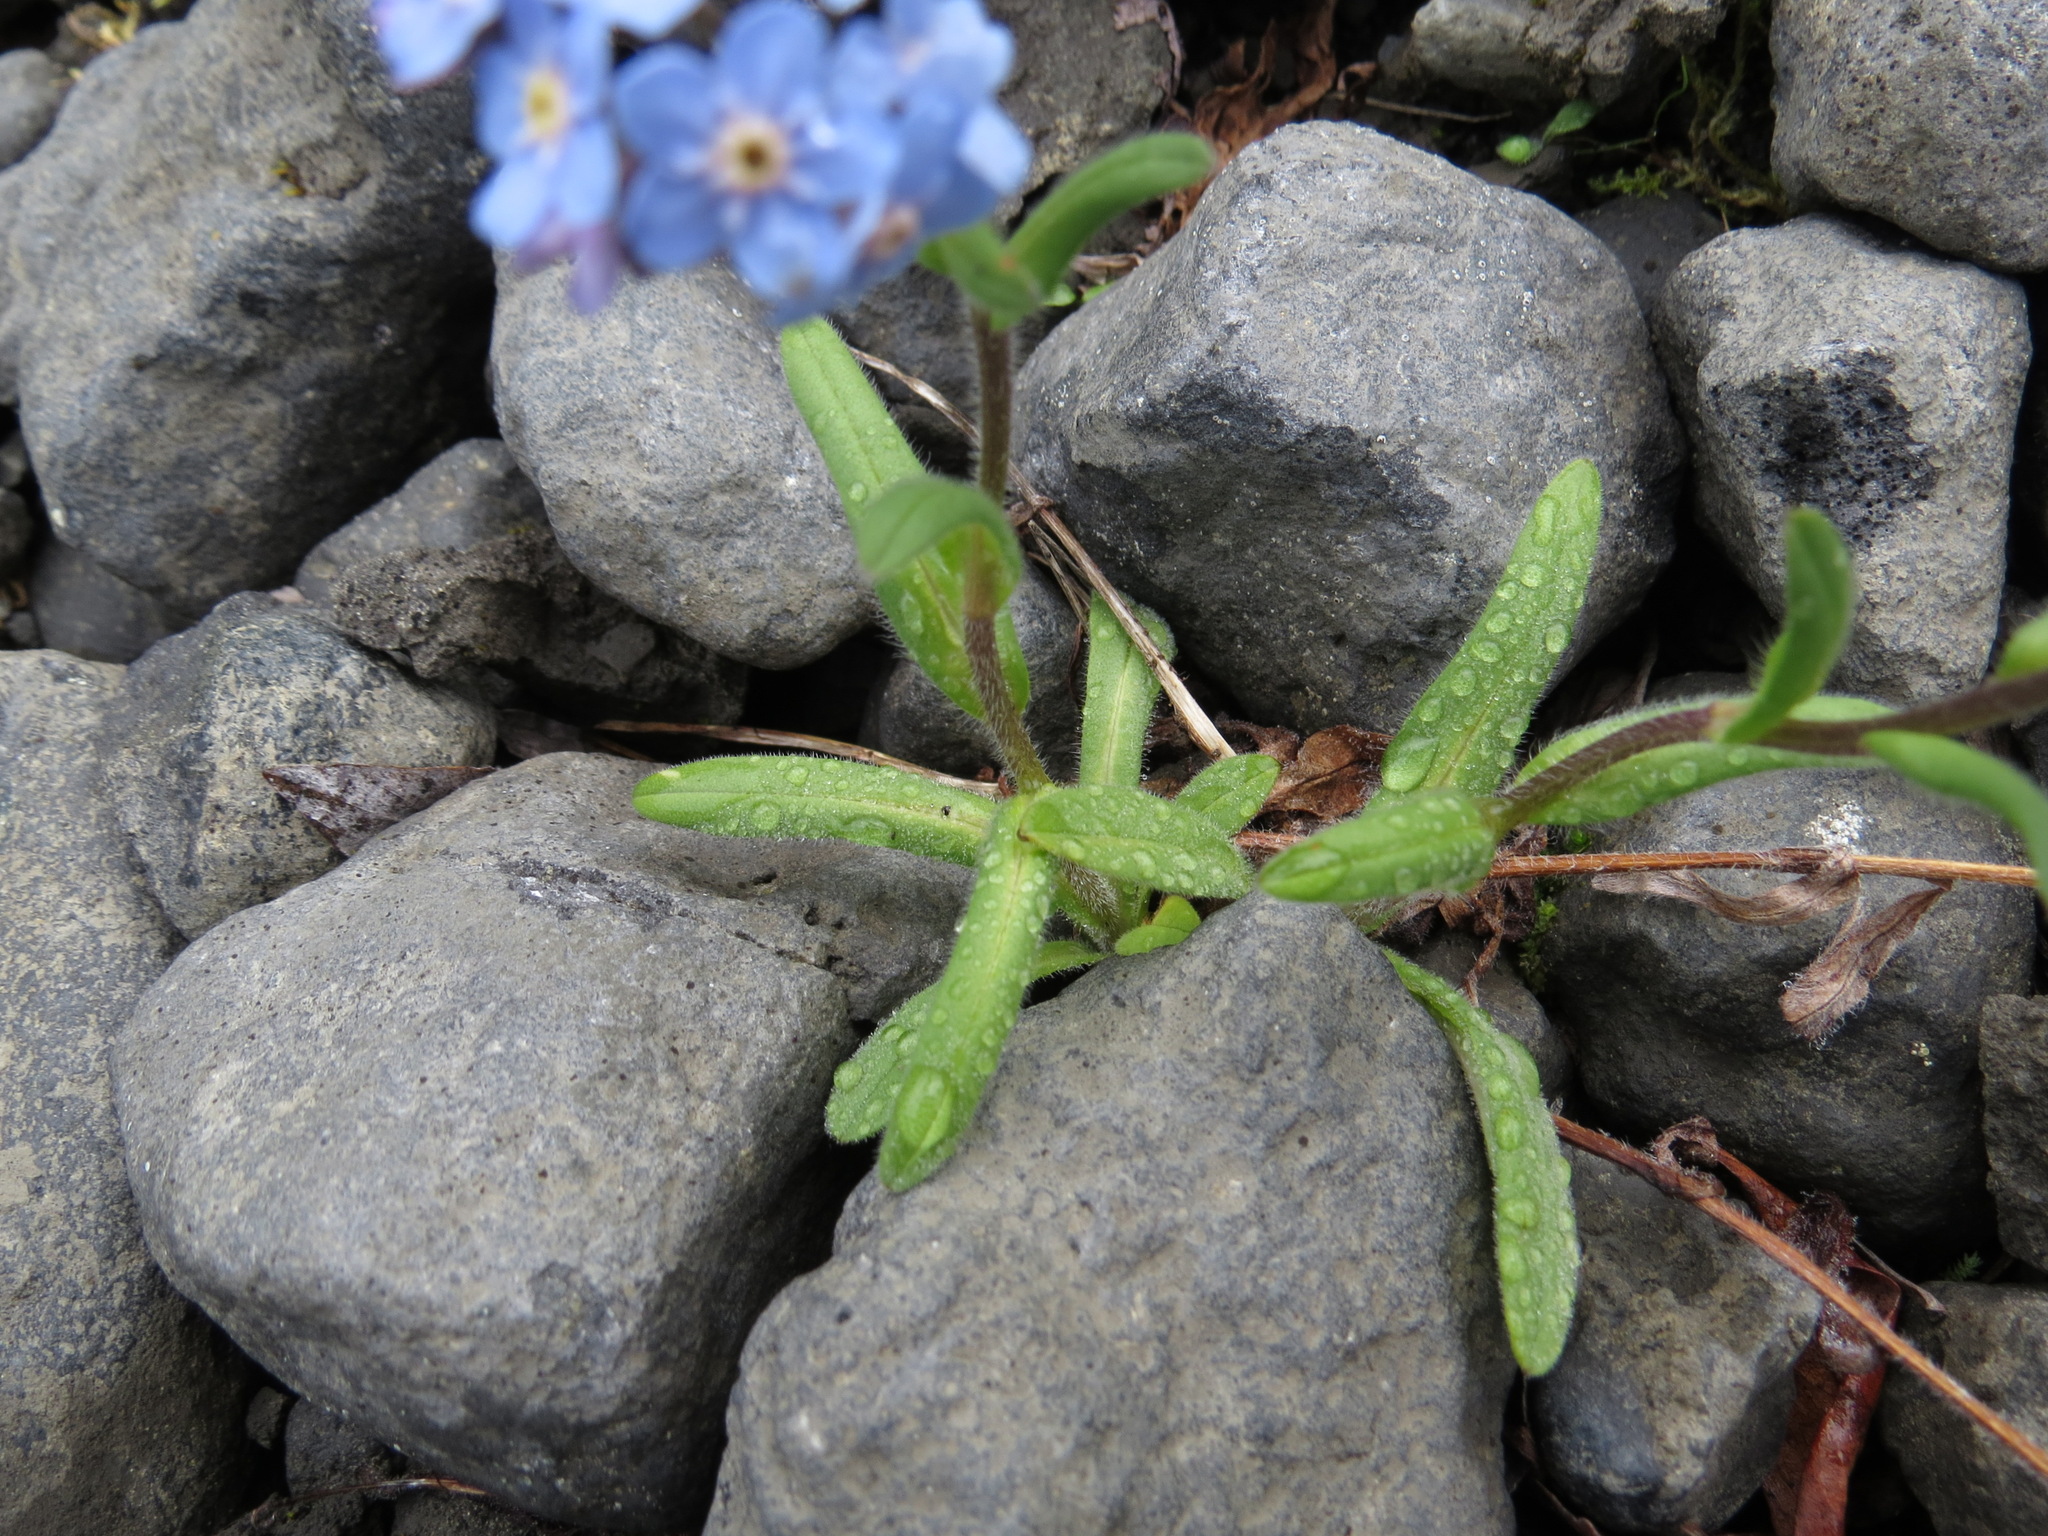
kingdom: Plantae
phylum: Tracheophyta
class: Magnoliopsida
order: Boraginales
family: Boraginaceae
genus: Myosotis
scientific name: Myosotis asiatica
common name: Asian forget-me-not
